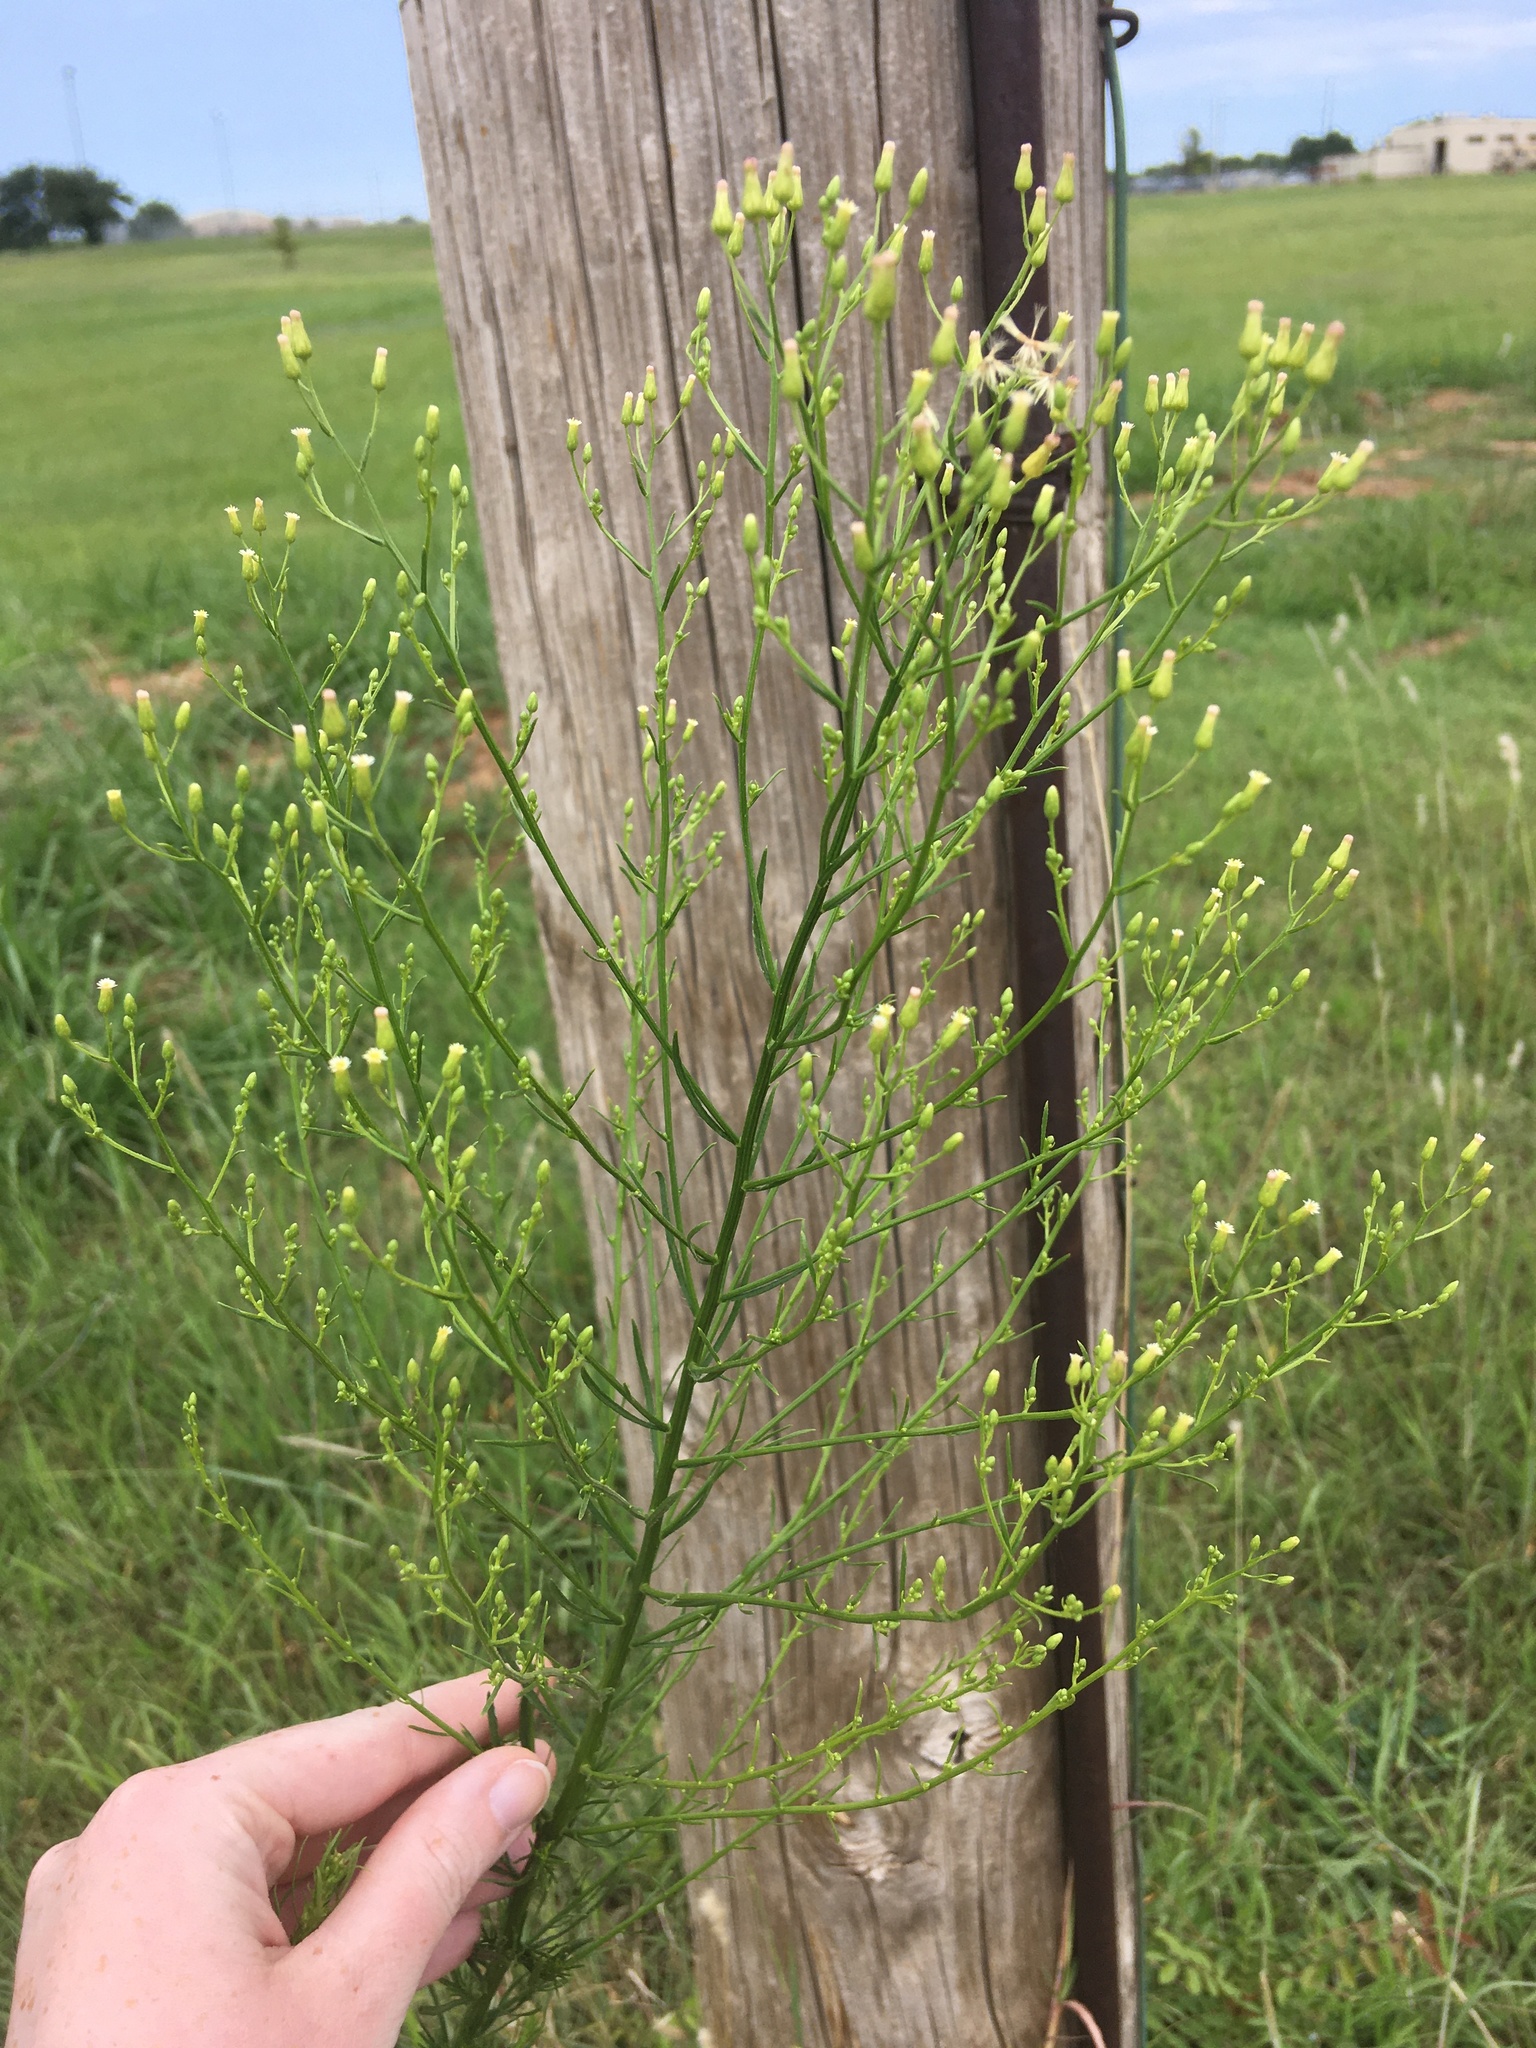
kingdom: Plantae
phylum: Tracheophyta
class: Magnoliopsida
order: Asterales
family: Asteraceae
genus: Erigeron
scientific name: Erigeron canadensis
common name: Canadian fleabane
